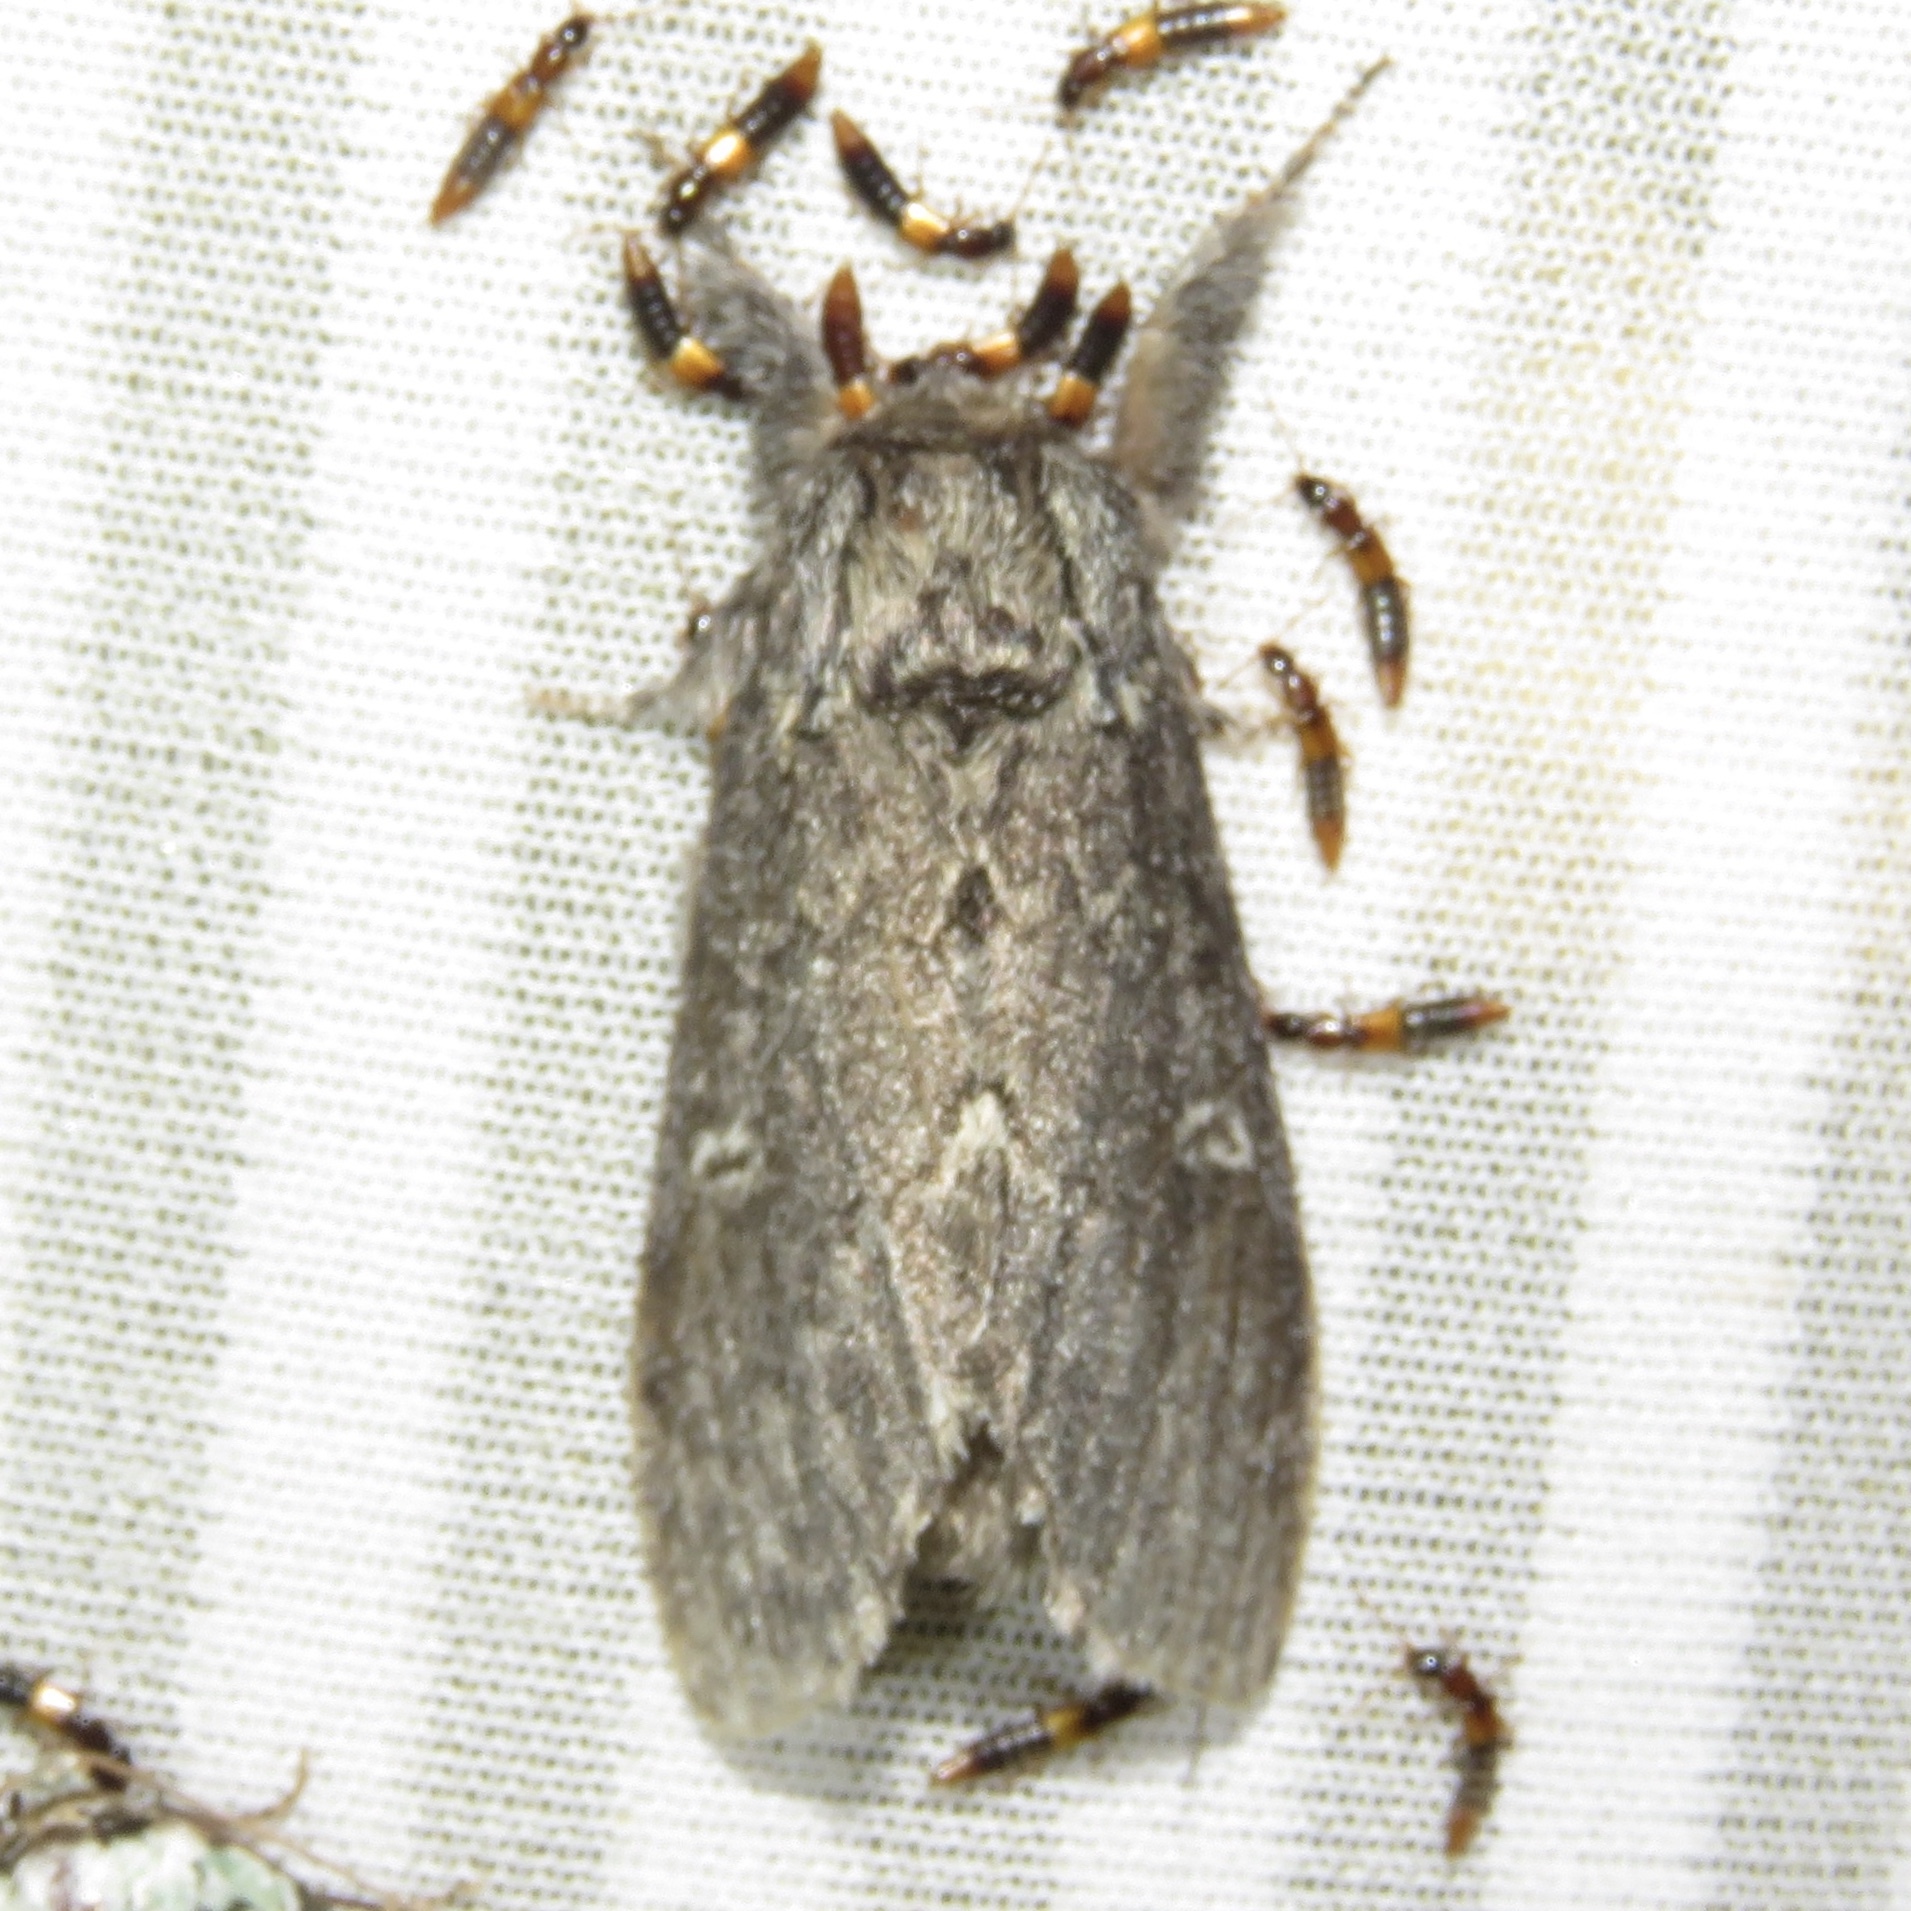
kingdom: Animalia
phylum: Arthropoda
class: Insecta
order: Lepidoptera
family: Notodontidae
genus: Notodonta
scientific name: Notodonta torva
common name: Large dark prominent
